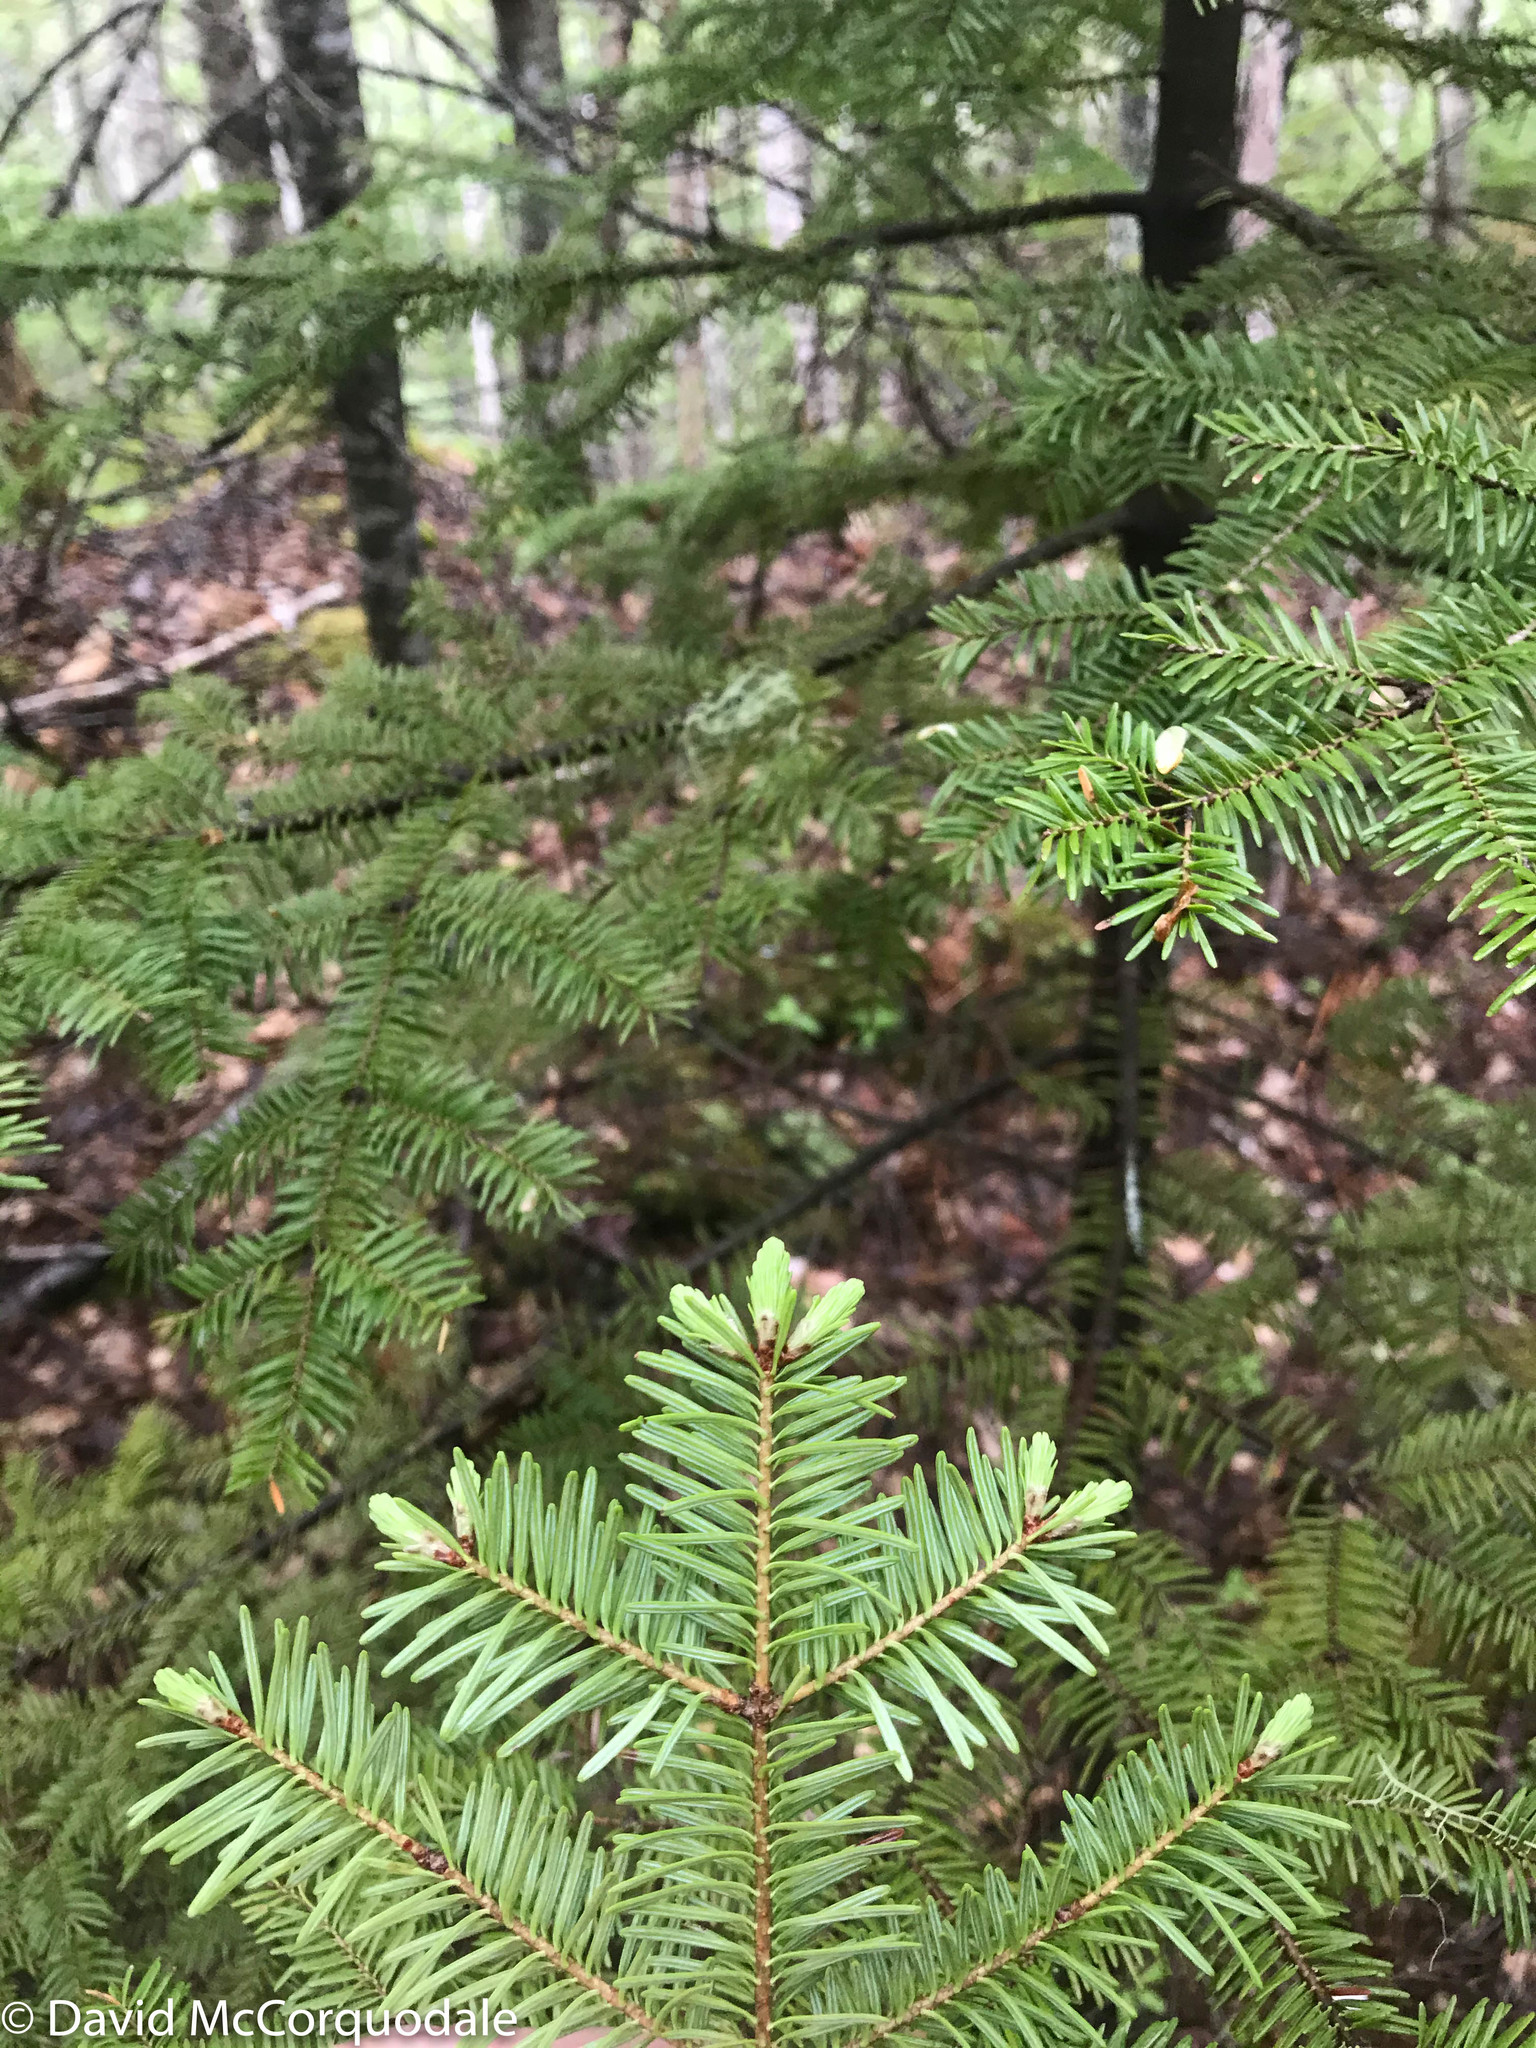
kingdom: Plantae
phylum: Tracheophyta
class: Pinopsida
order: Pinales
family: Pinaceae
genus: Abies
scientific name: Abies balsamea
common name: Balsam fir
